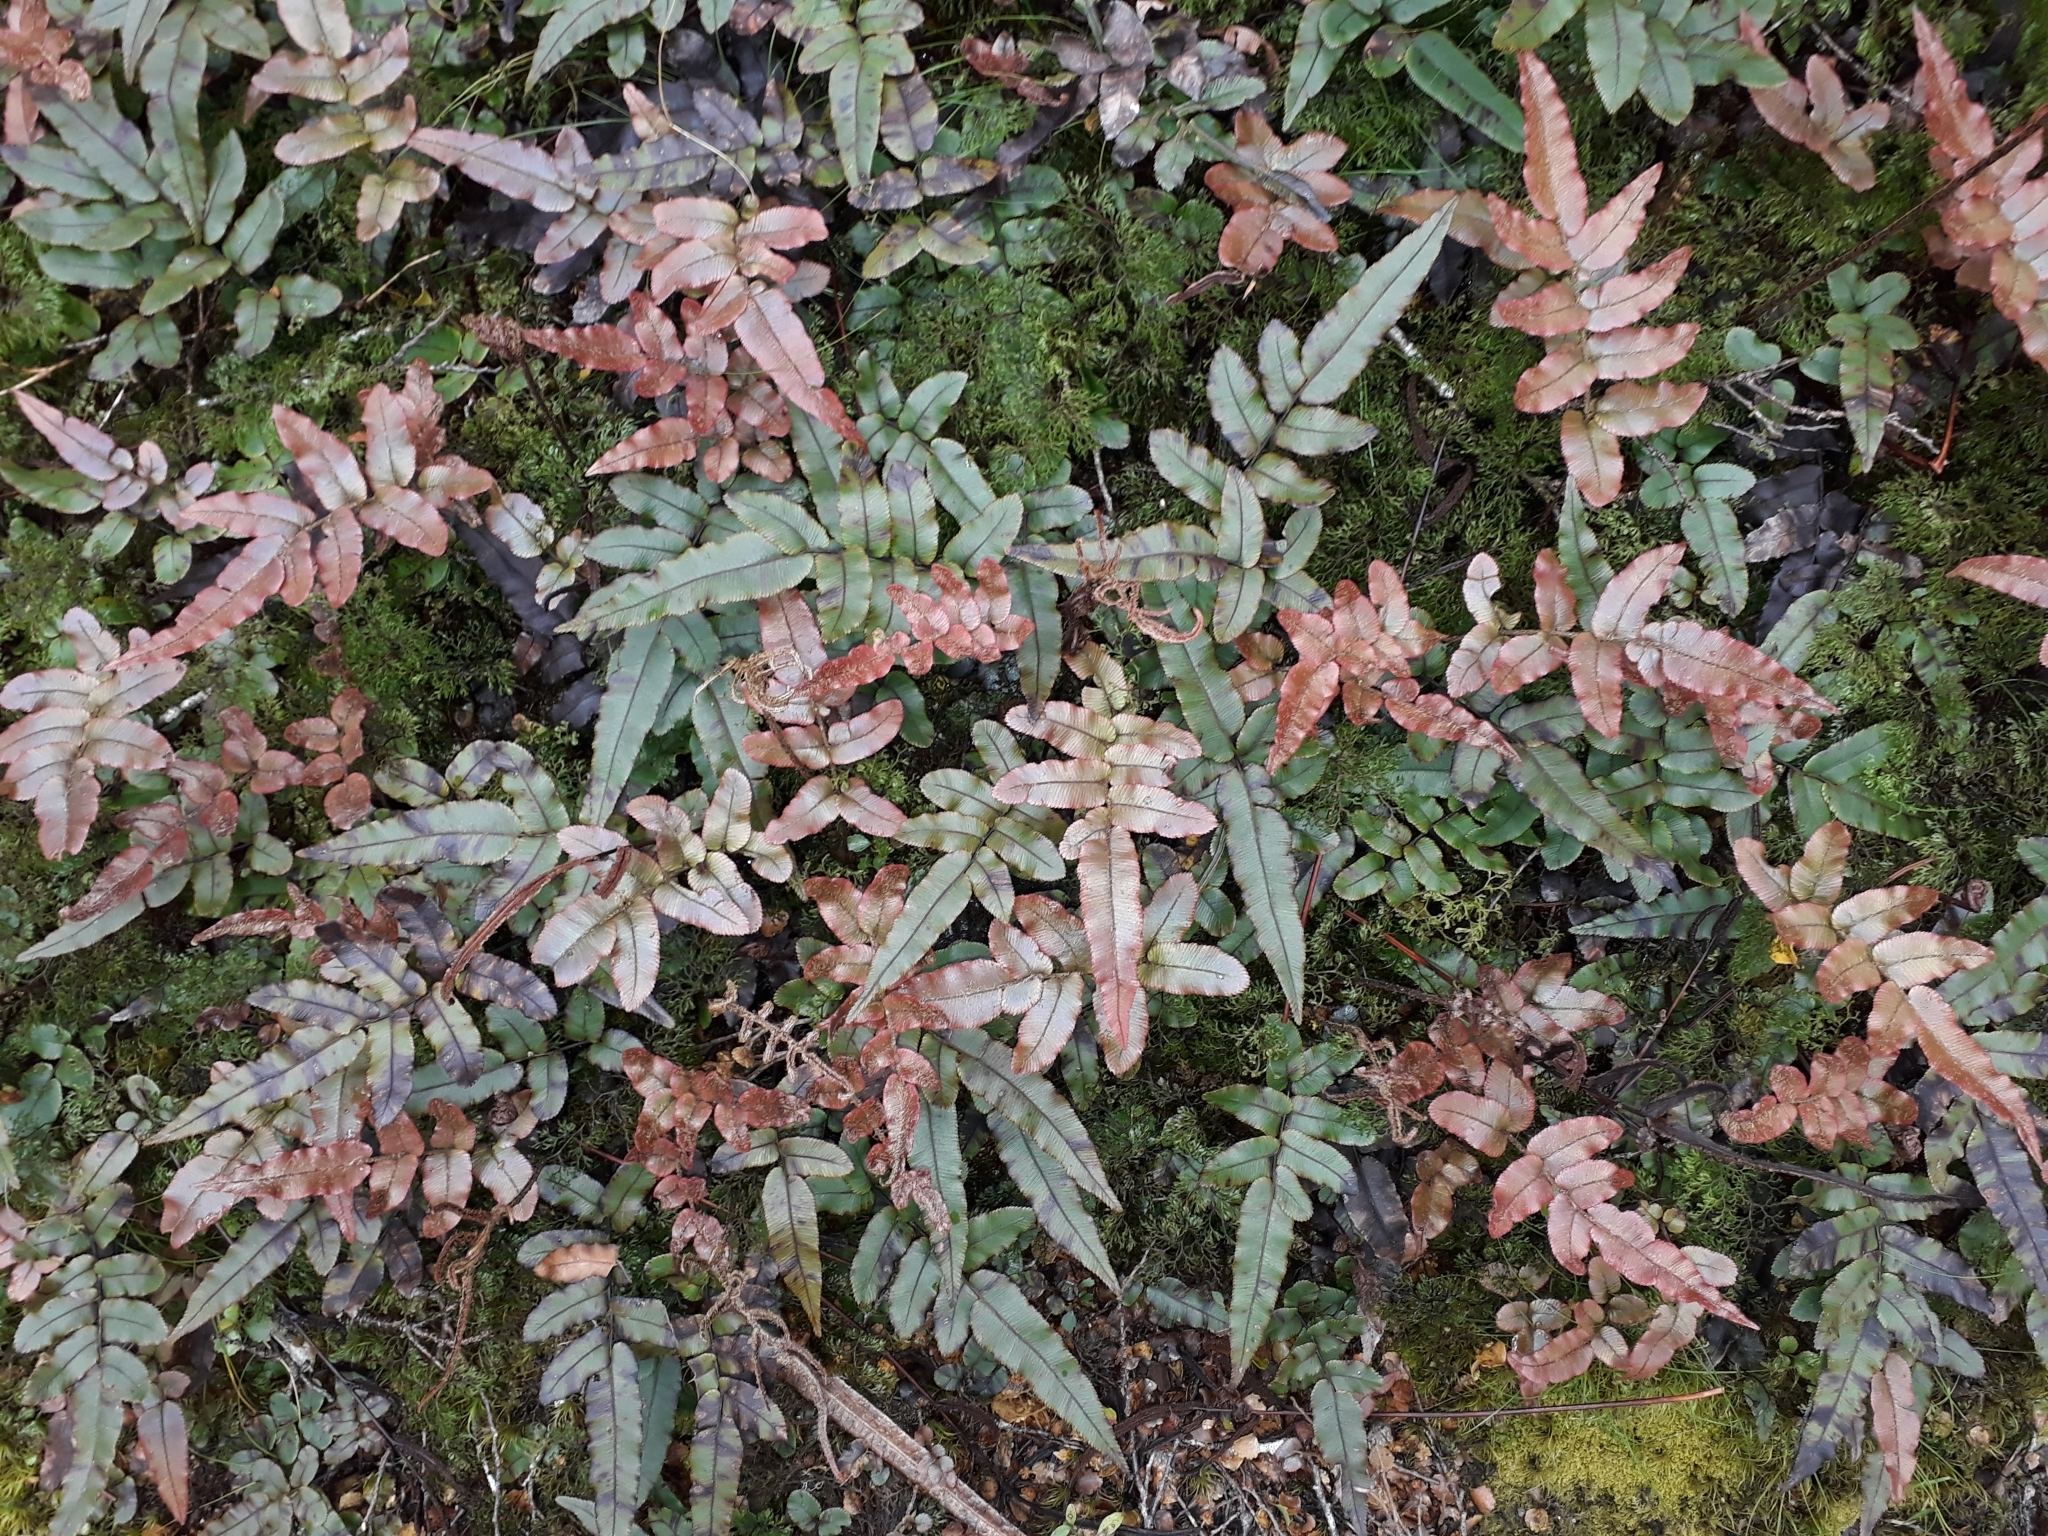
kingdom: Plantae
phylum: Tracheophyta
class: Polypodiopsida
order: Polypodiales
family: Blechnaceae
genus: Parablechnum
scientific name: Parablechnum procerum
